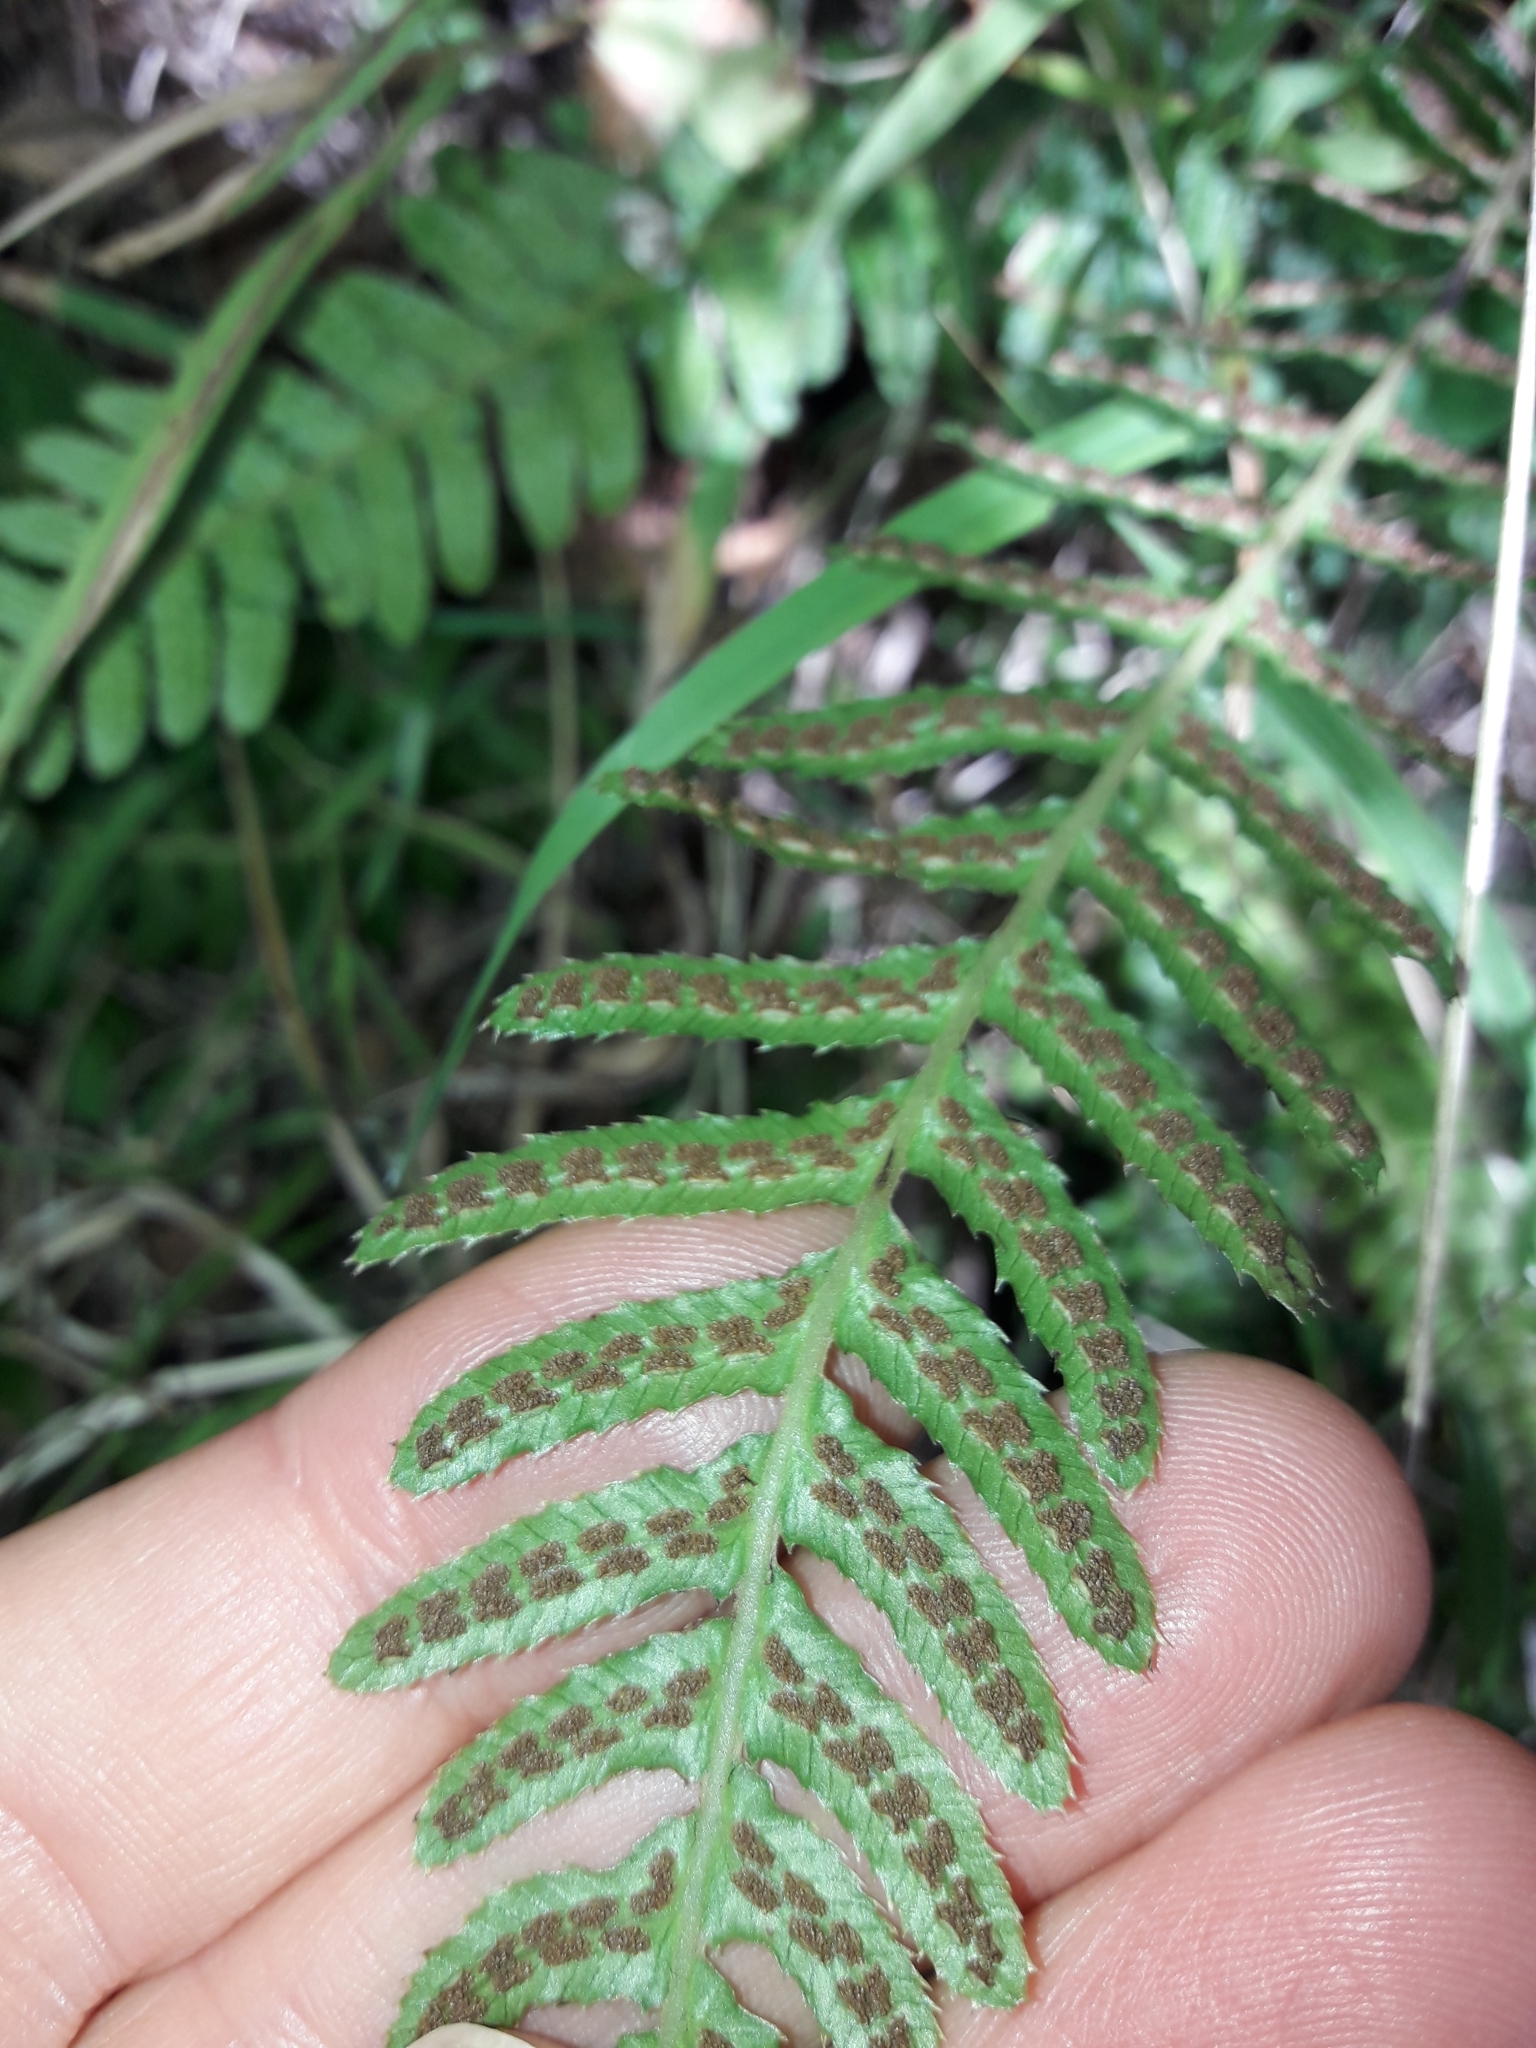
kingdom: Plantae
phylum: Tracheophyta
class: Polypodiopsida
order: Polypodiales
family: Blechnaceae
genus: Doodia
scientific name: Doodia australis
